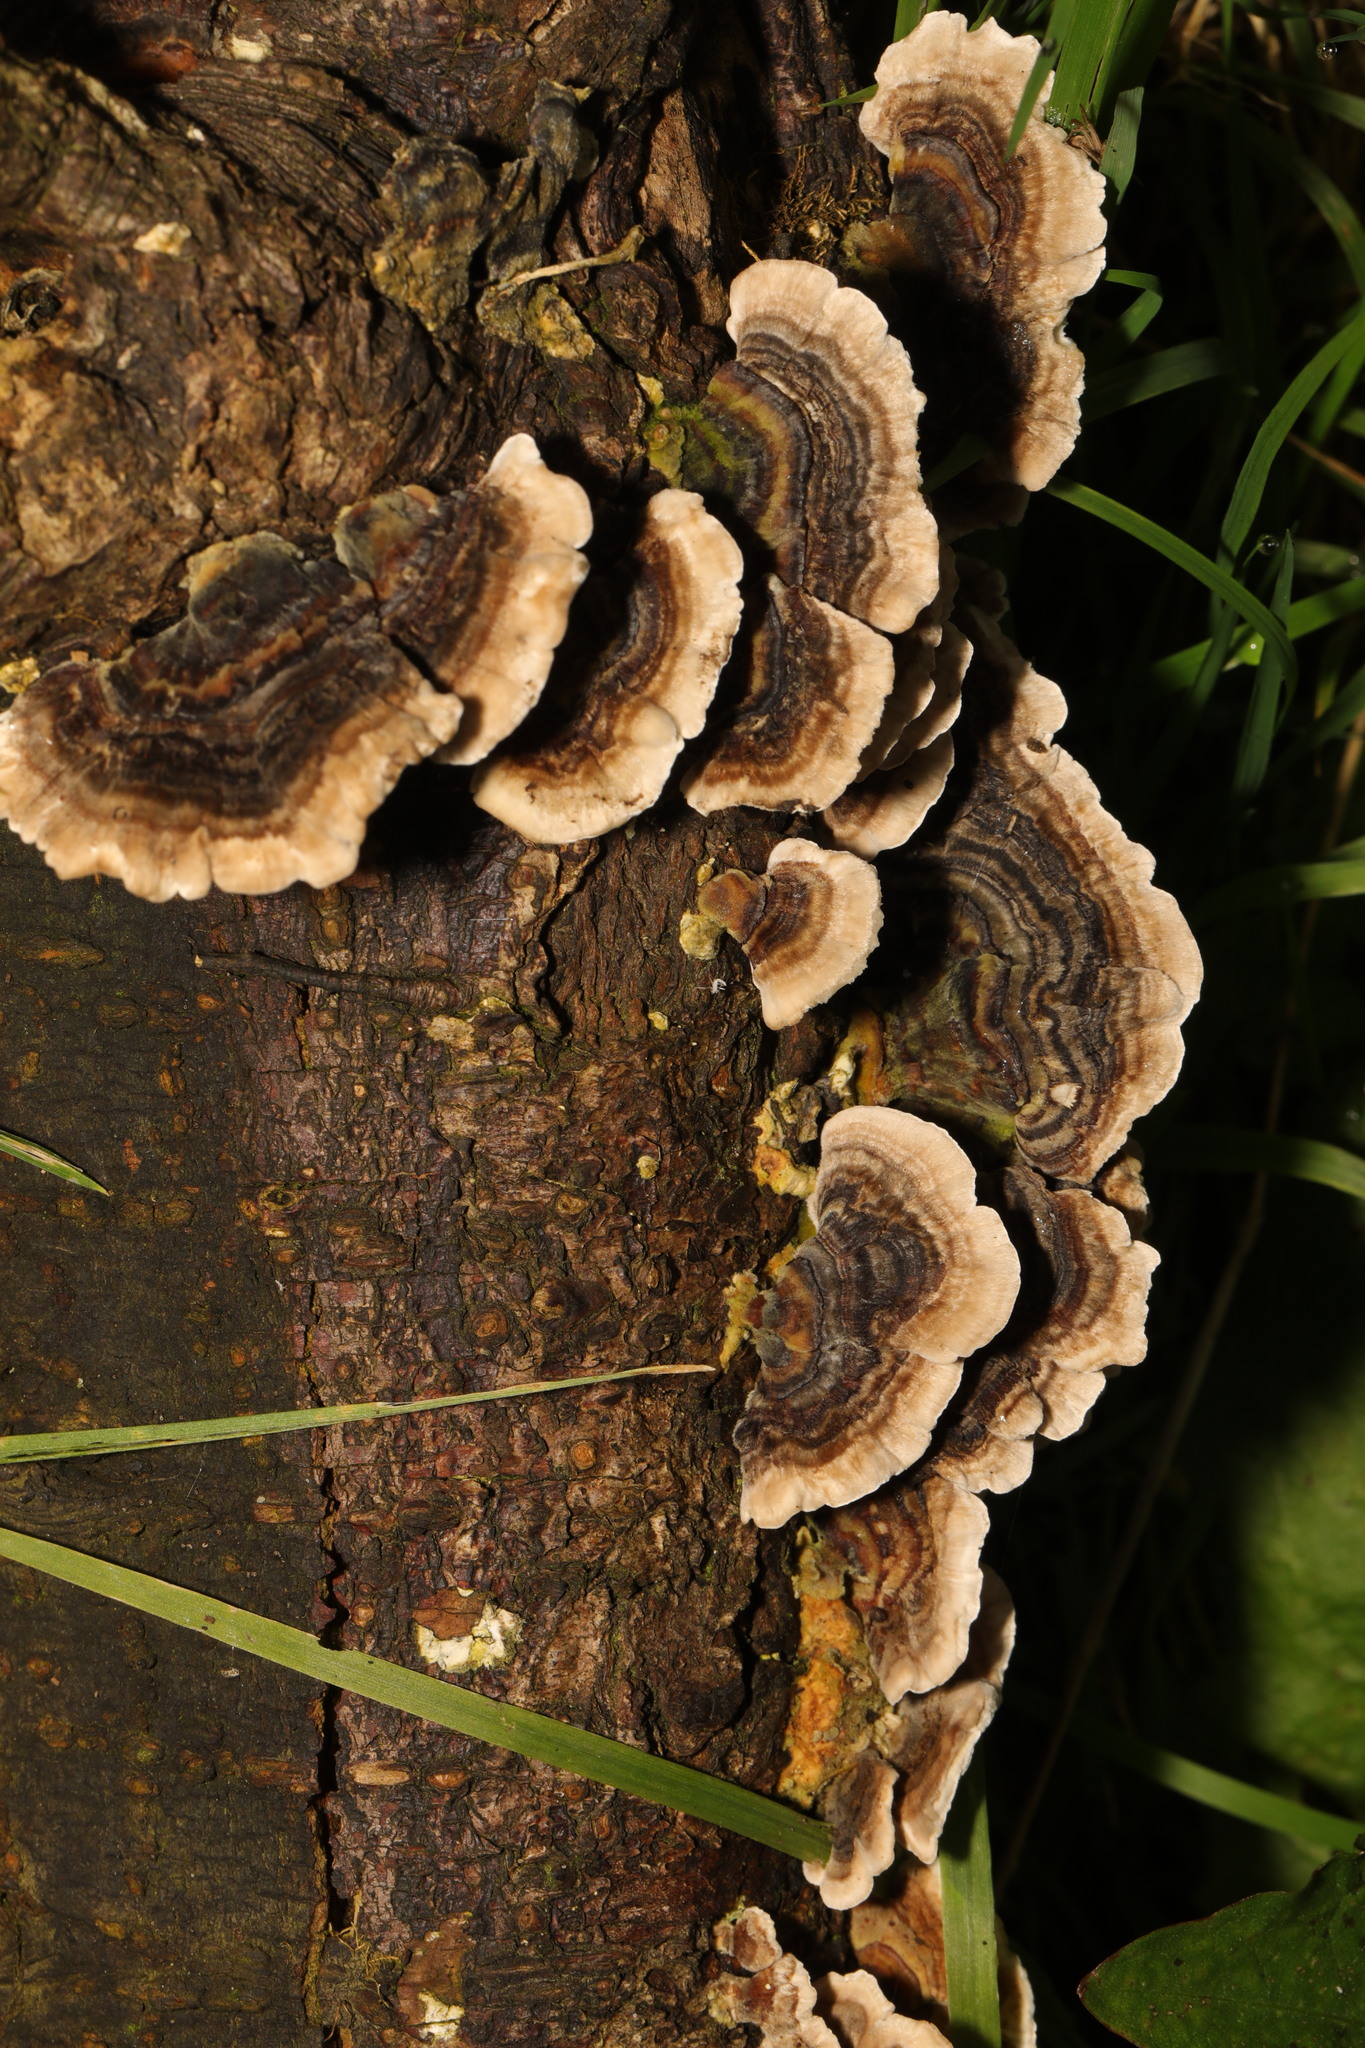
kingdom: Fungi
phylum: Basidiomycota
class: Agaricomycetes
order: Polyporales
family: Polyporaceae
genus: Trametes
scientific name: Trametes versicolor
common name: Turkeytail
